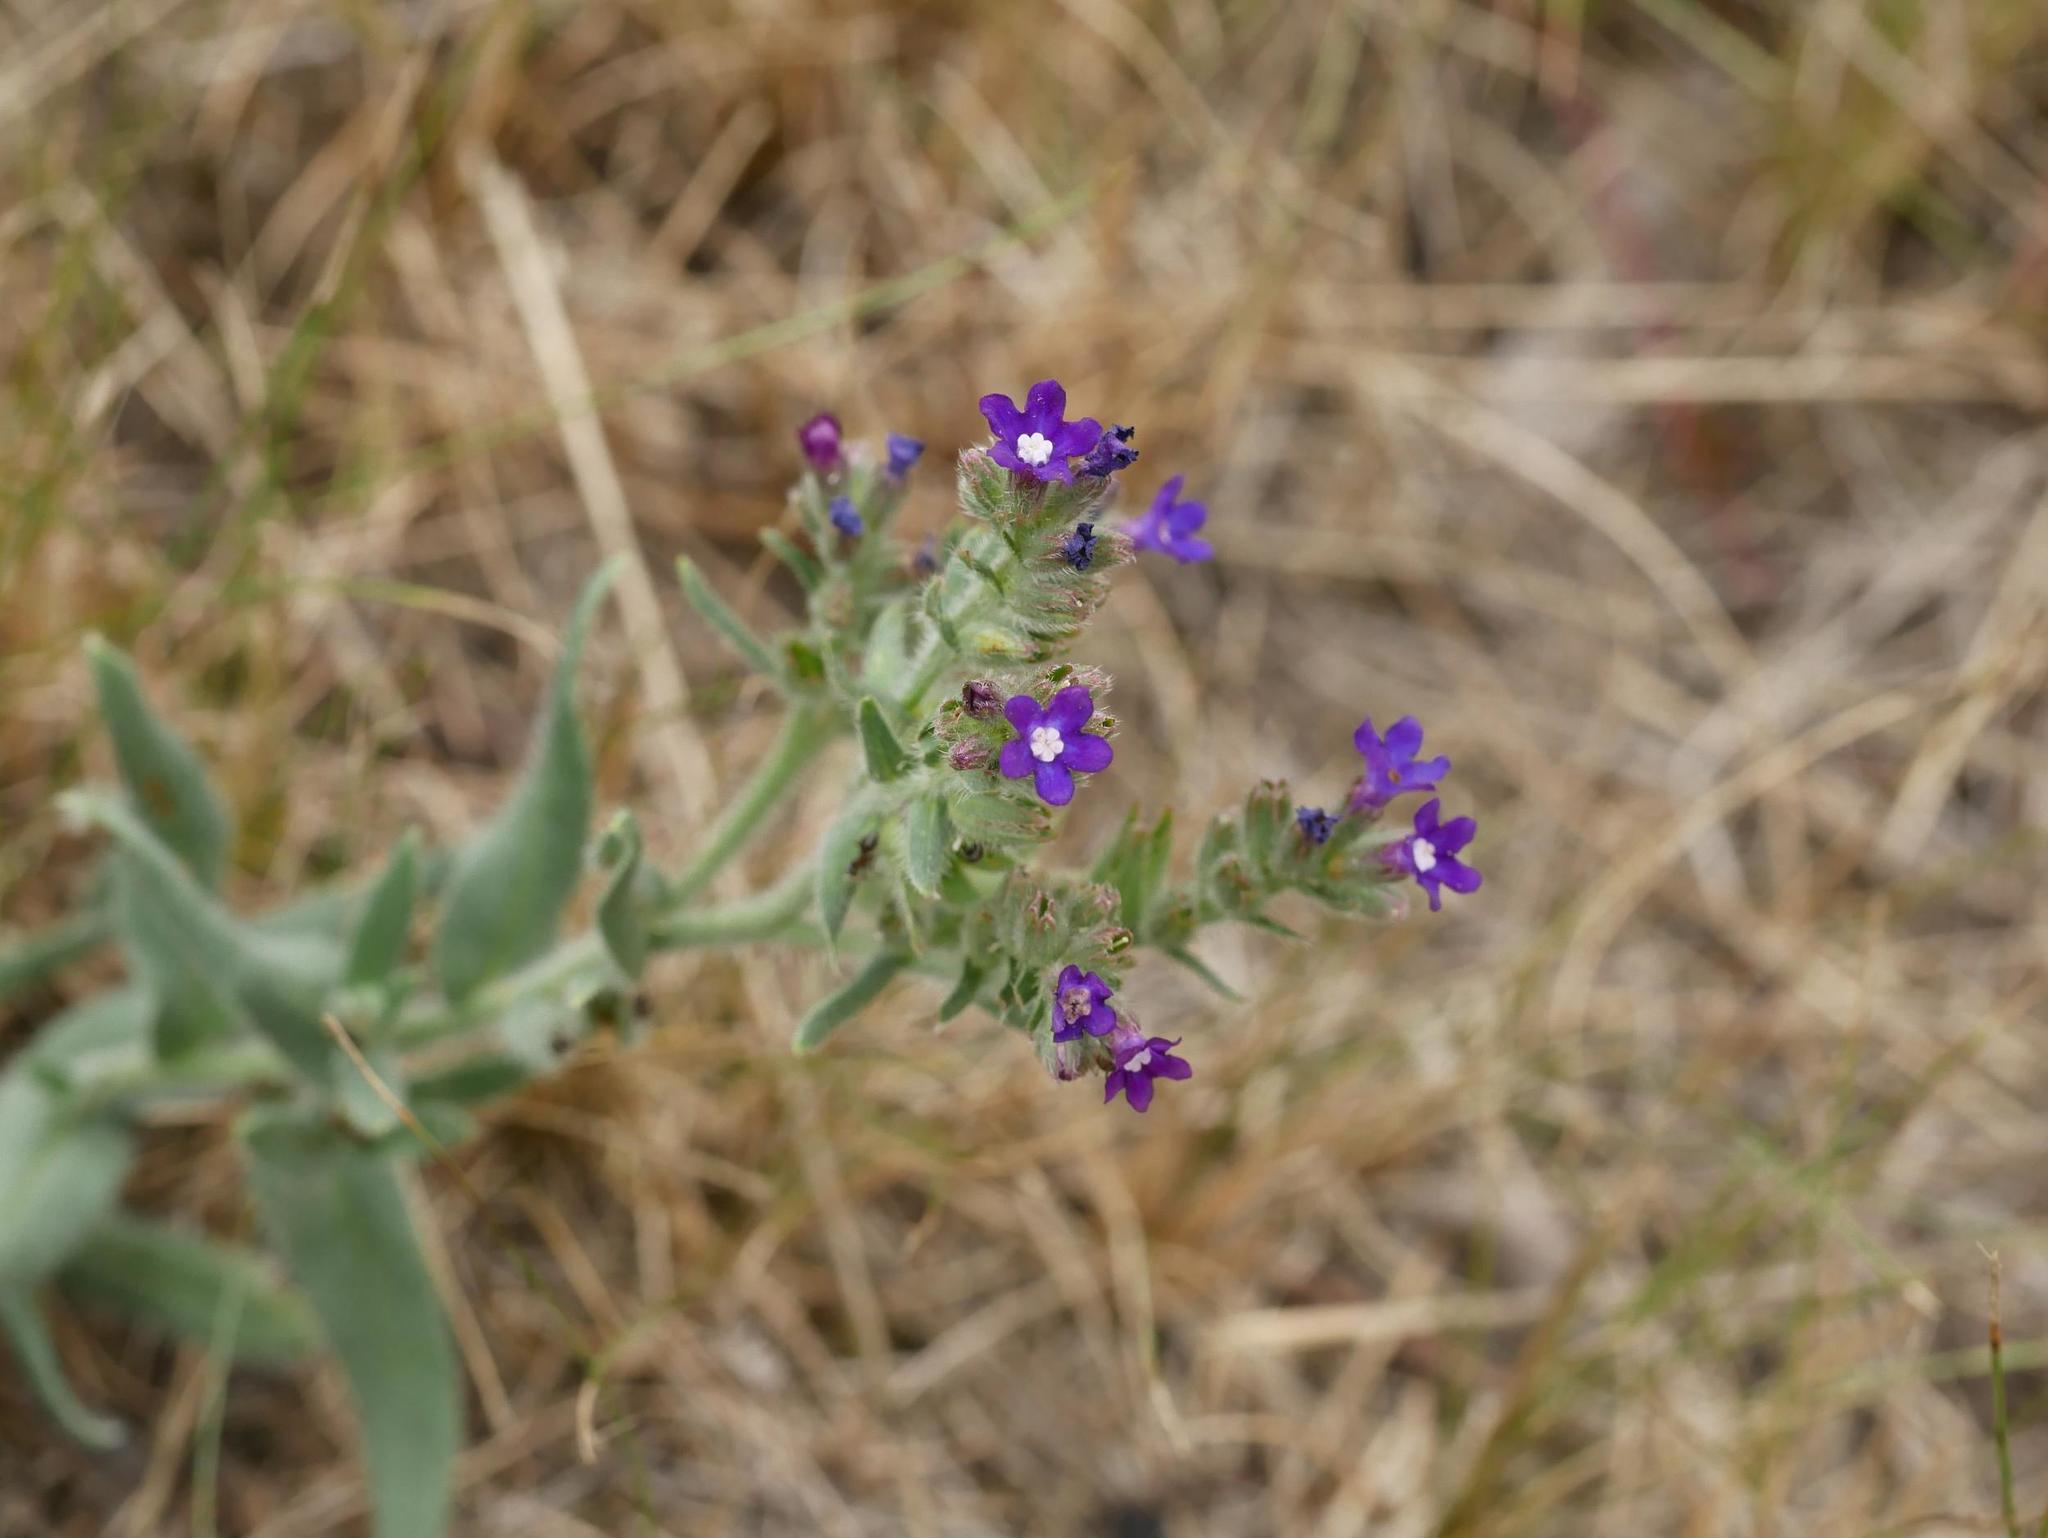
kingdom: Plantae
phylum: Tracheophyta
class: Magnoliopsida
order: Boraginales
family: Boraginaceae
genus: Anchusa
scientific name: Anchusa officinalis
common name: Alkanet
